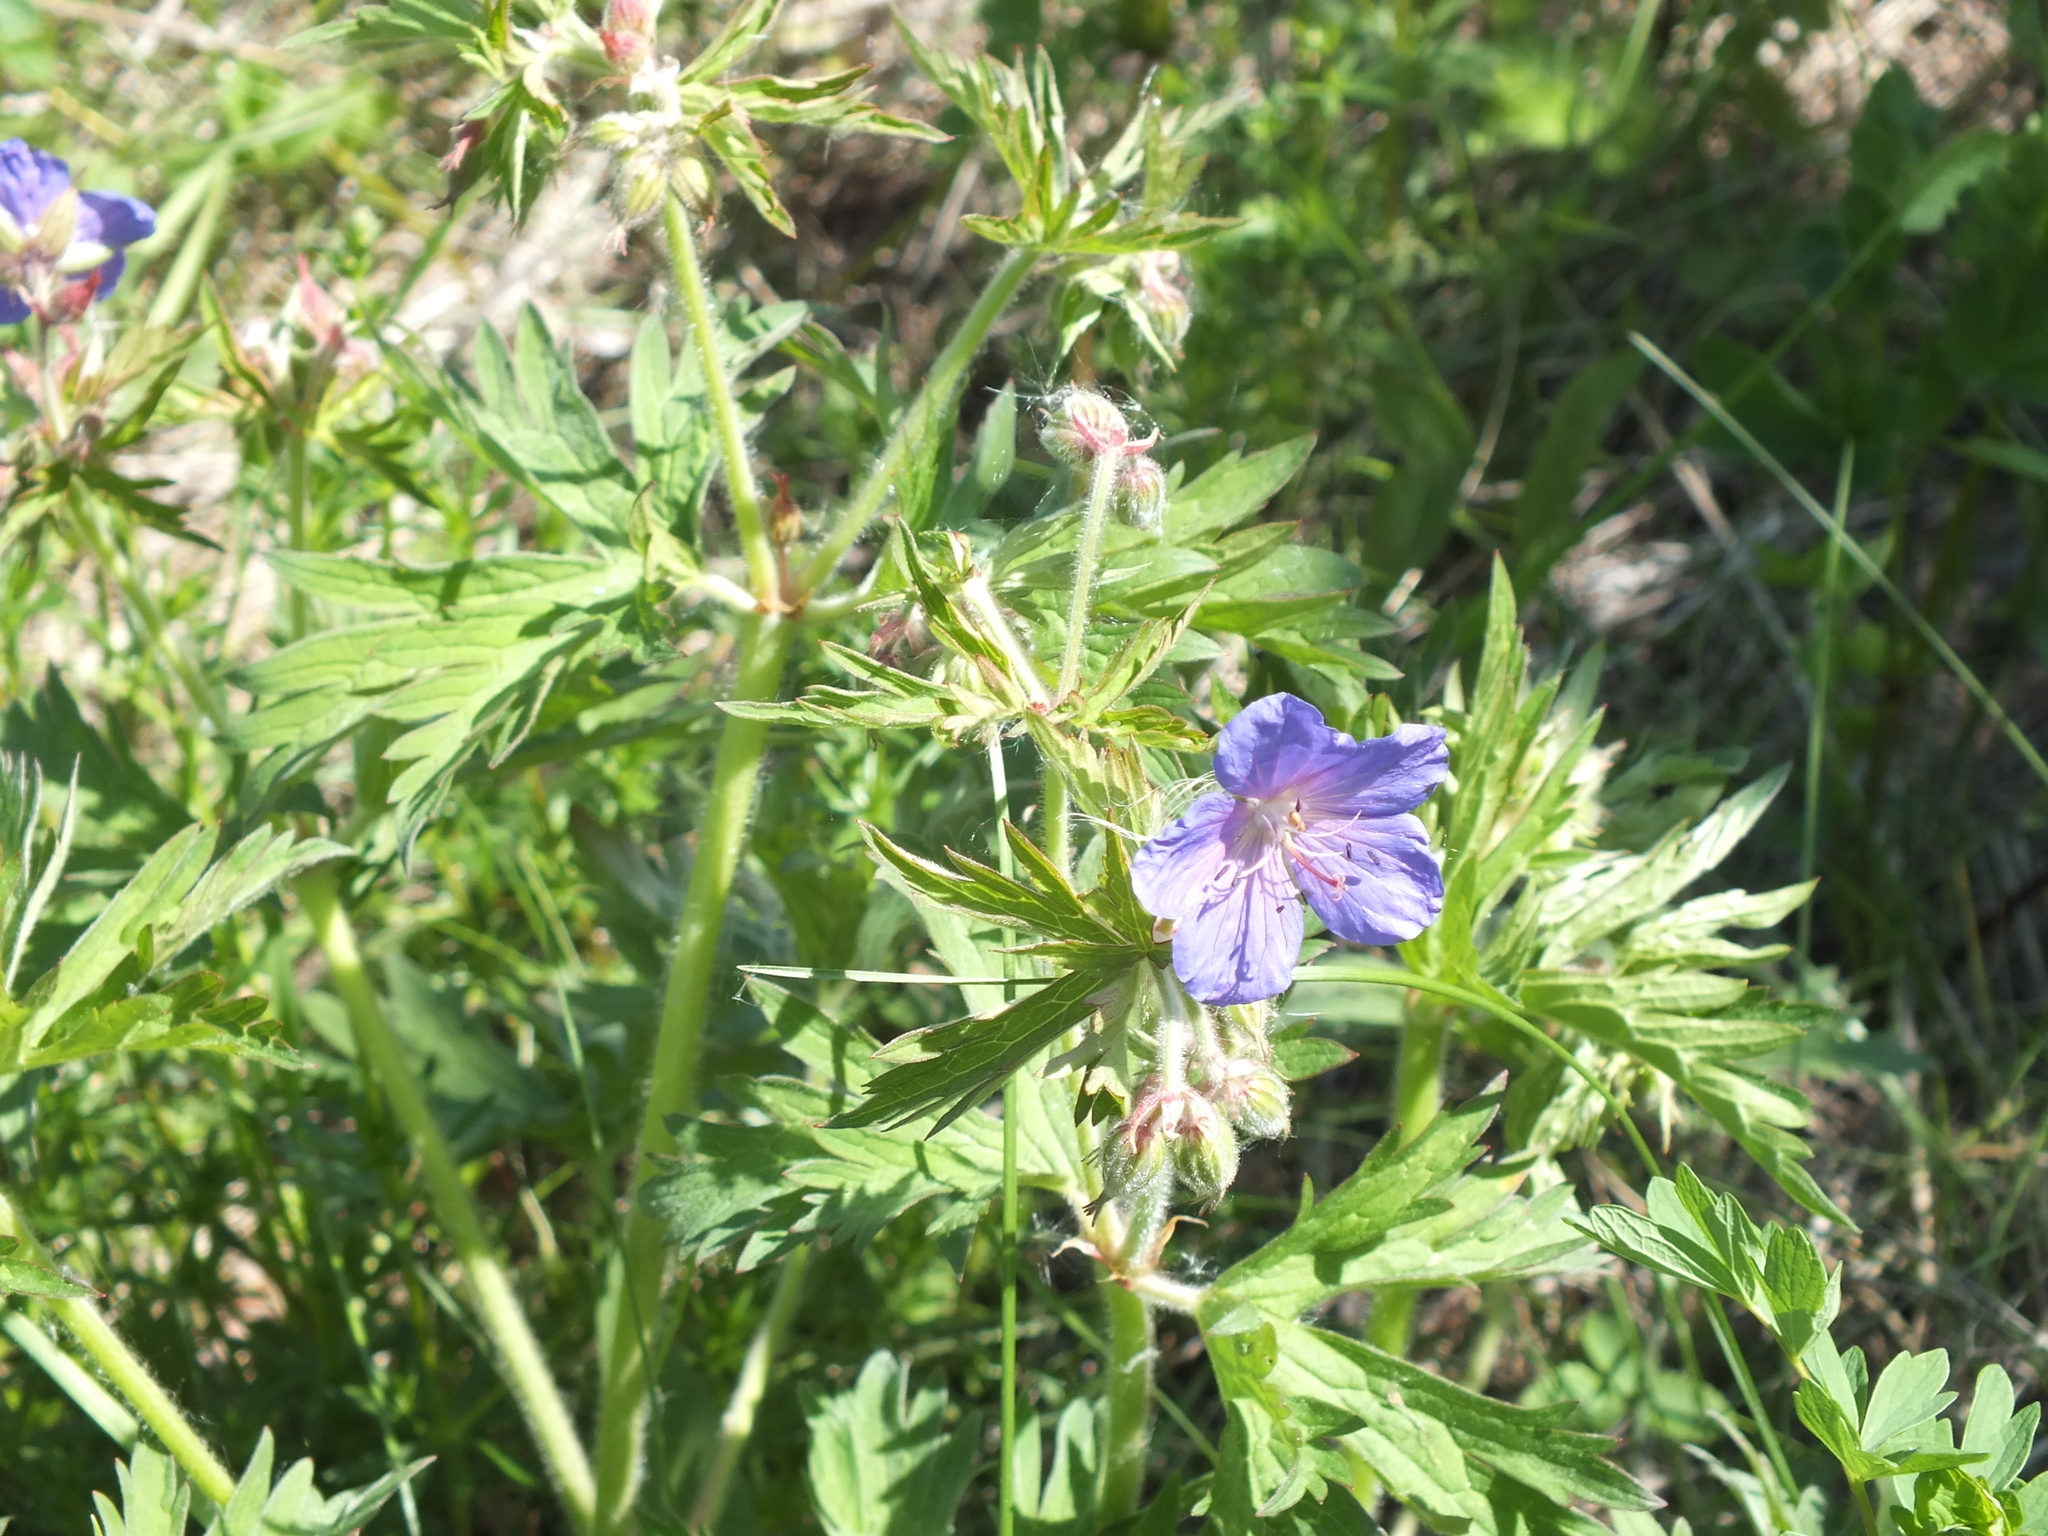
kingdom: Plantae
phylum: Tracheophyta
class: Magnoliopsida
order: Geraniales
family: Geraniaceae
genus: Geranium
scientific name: Geranium pratense
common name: Meadow crane's-bill
